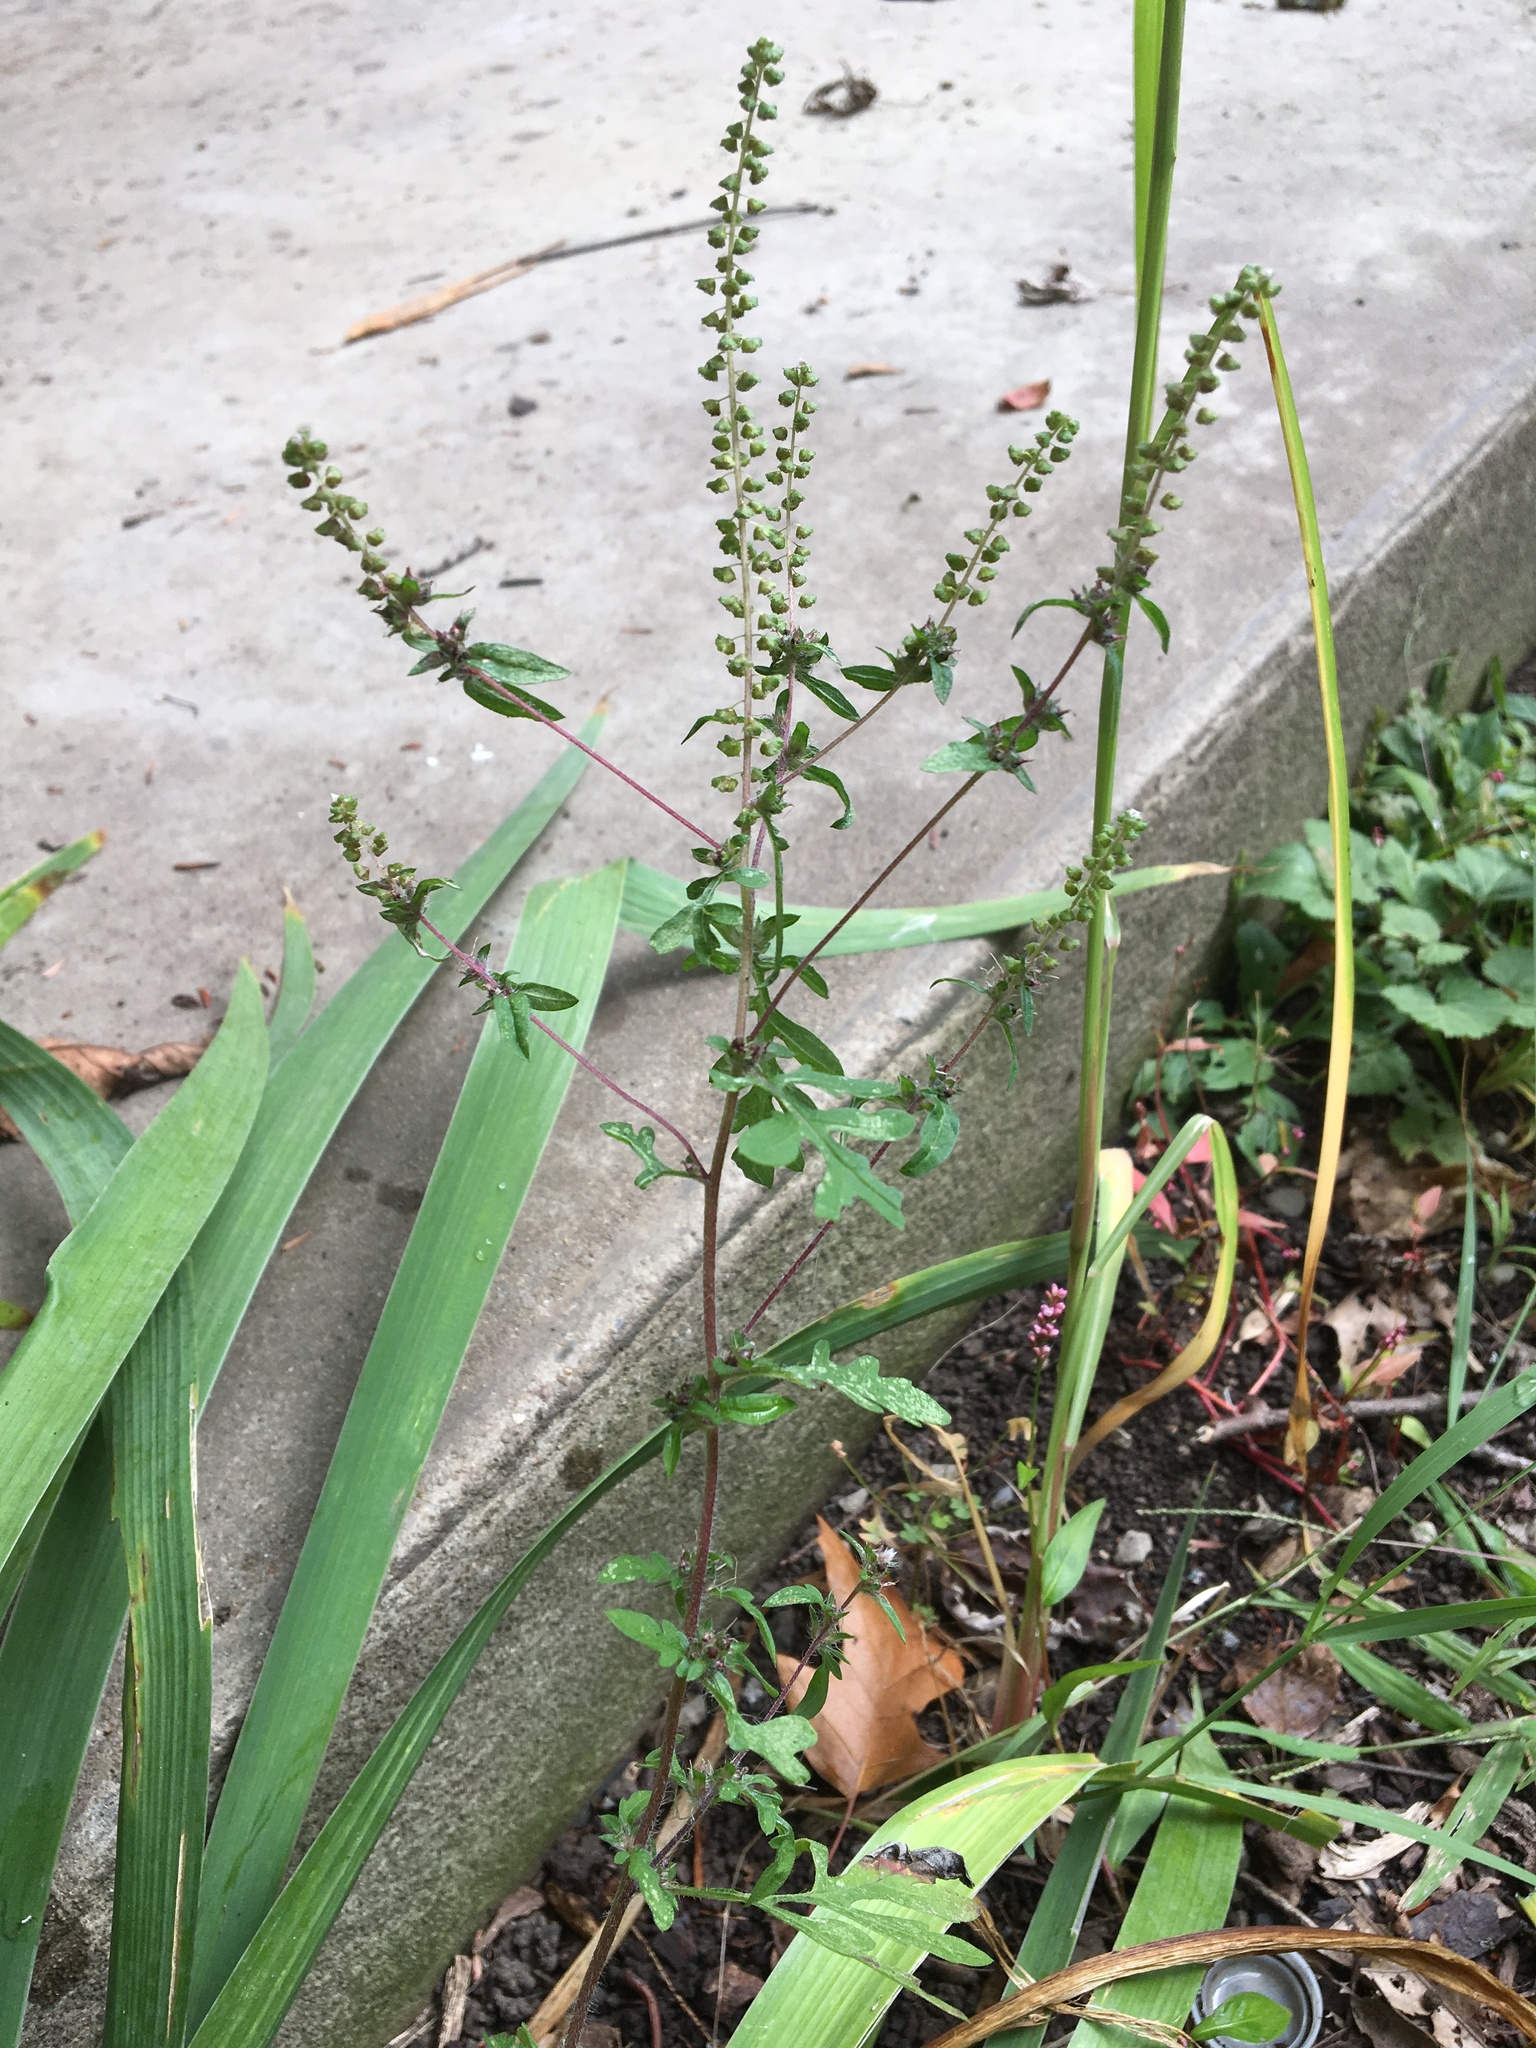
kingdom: Plantae
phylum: Tracheophyta
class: Magnoliopsida
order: Asterales
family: Asteraceae
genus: Ambrosia
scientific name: Ambrosia artemisiifolia
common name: Annual ragweed
